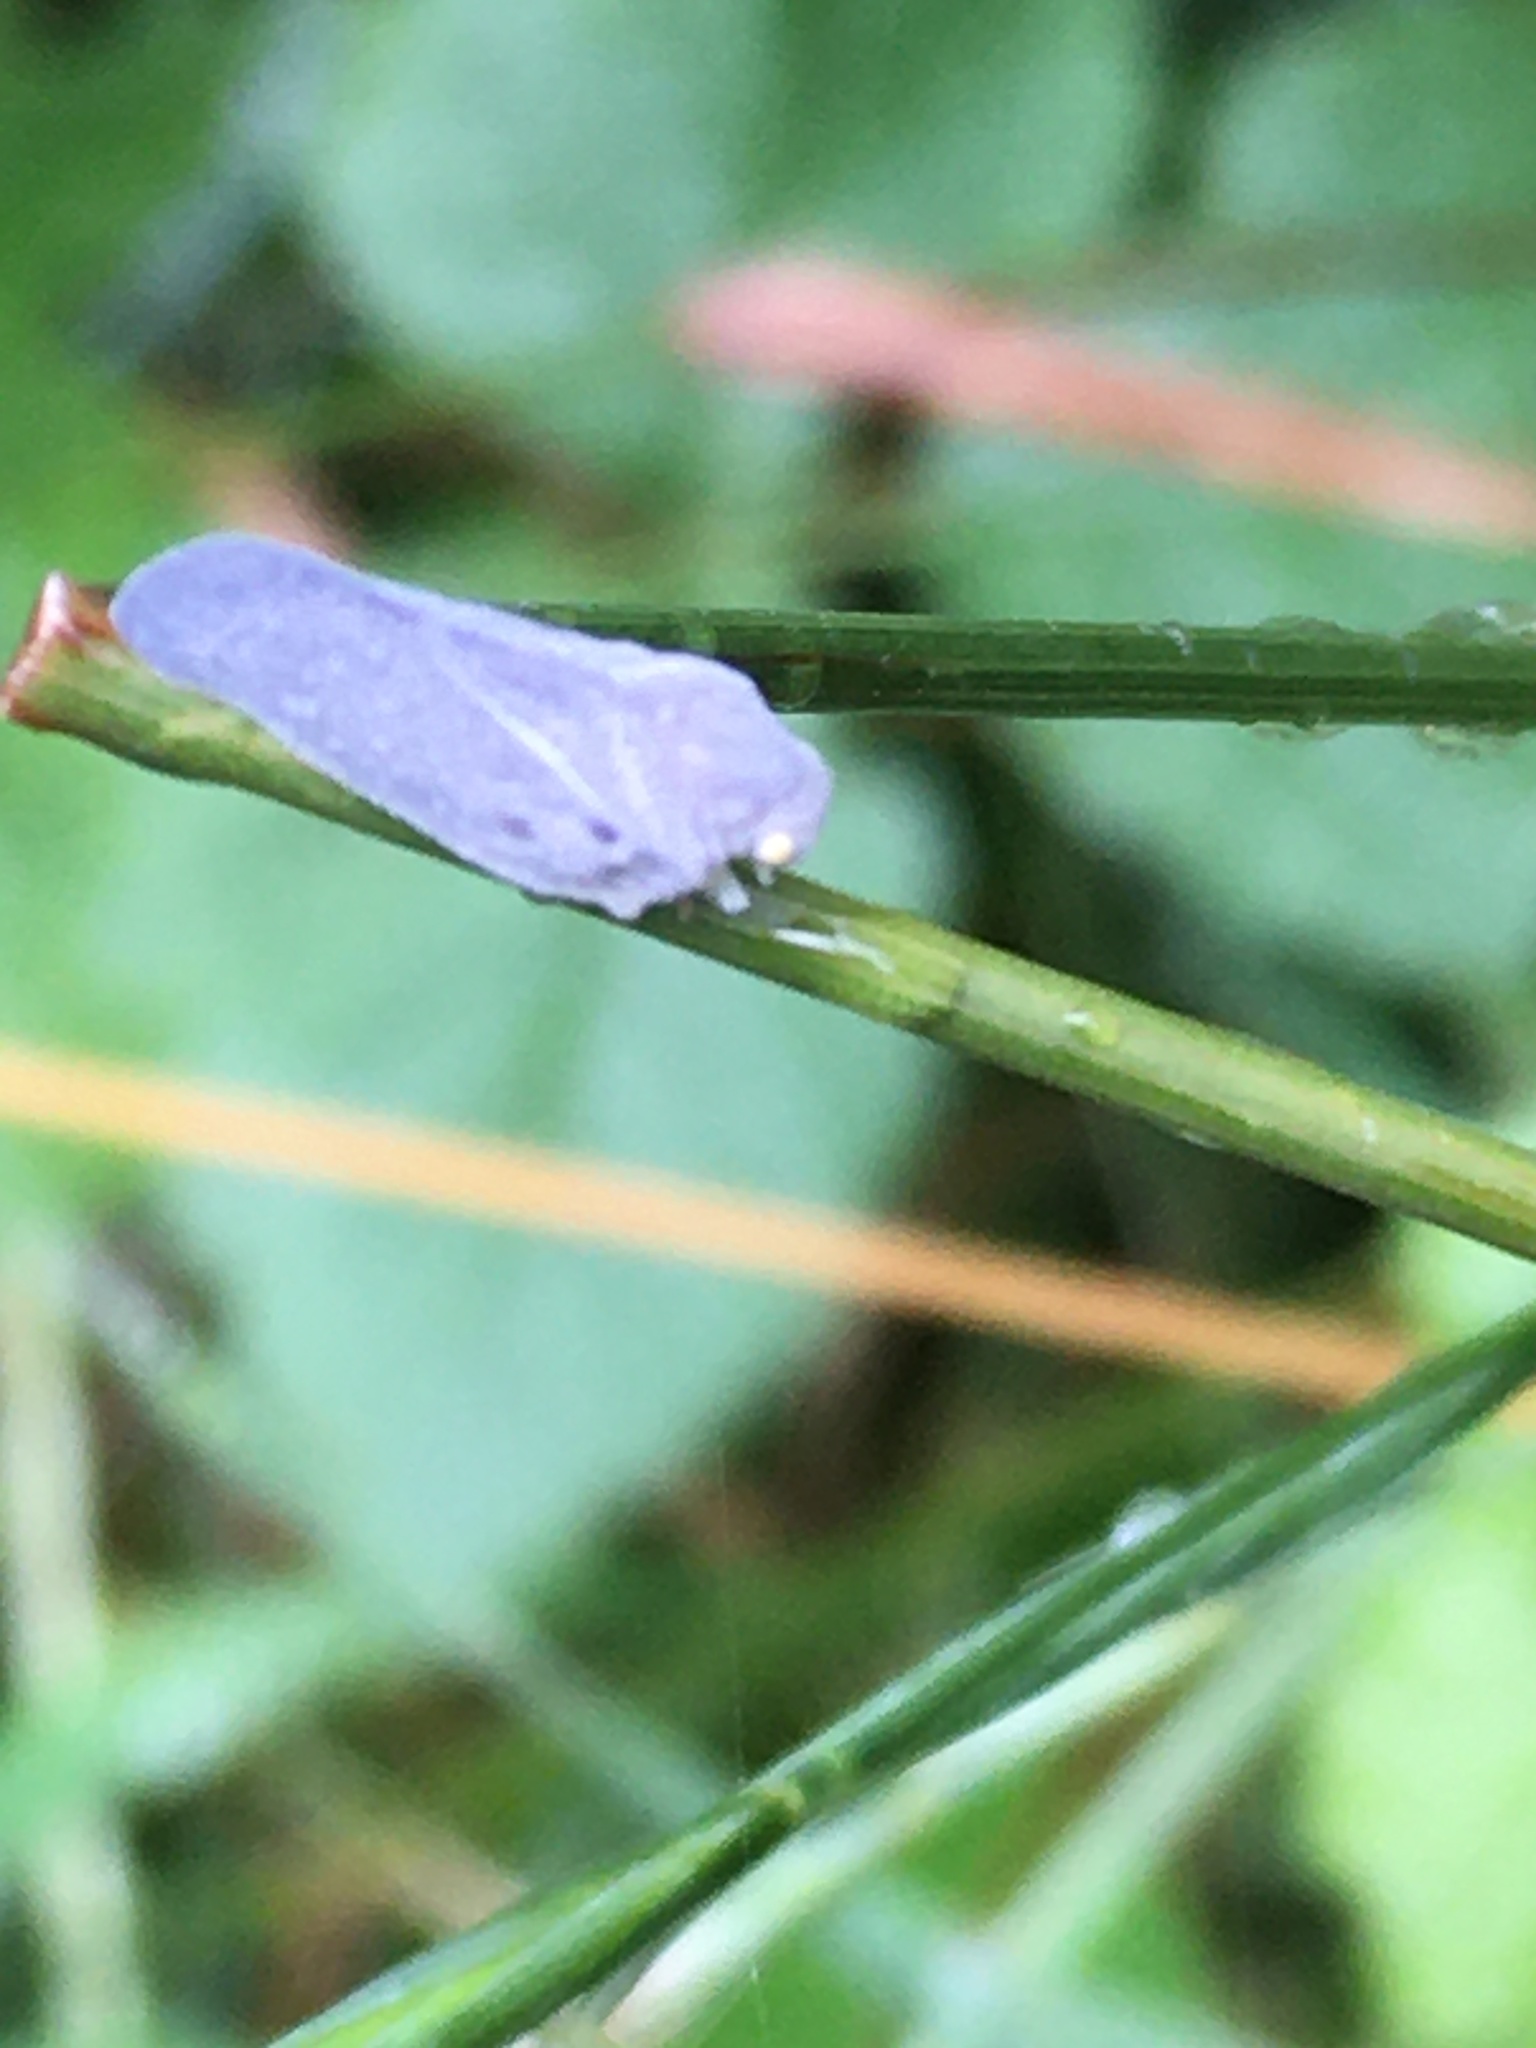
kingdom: Animalia
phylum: Arthropoda
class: Insecta
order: Hemiptera
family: Flatidae
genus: Metcalfa
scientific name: Metcalfa pruinosa
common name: Citrus flatid planthopper
